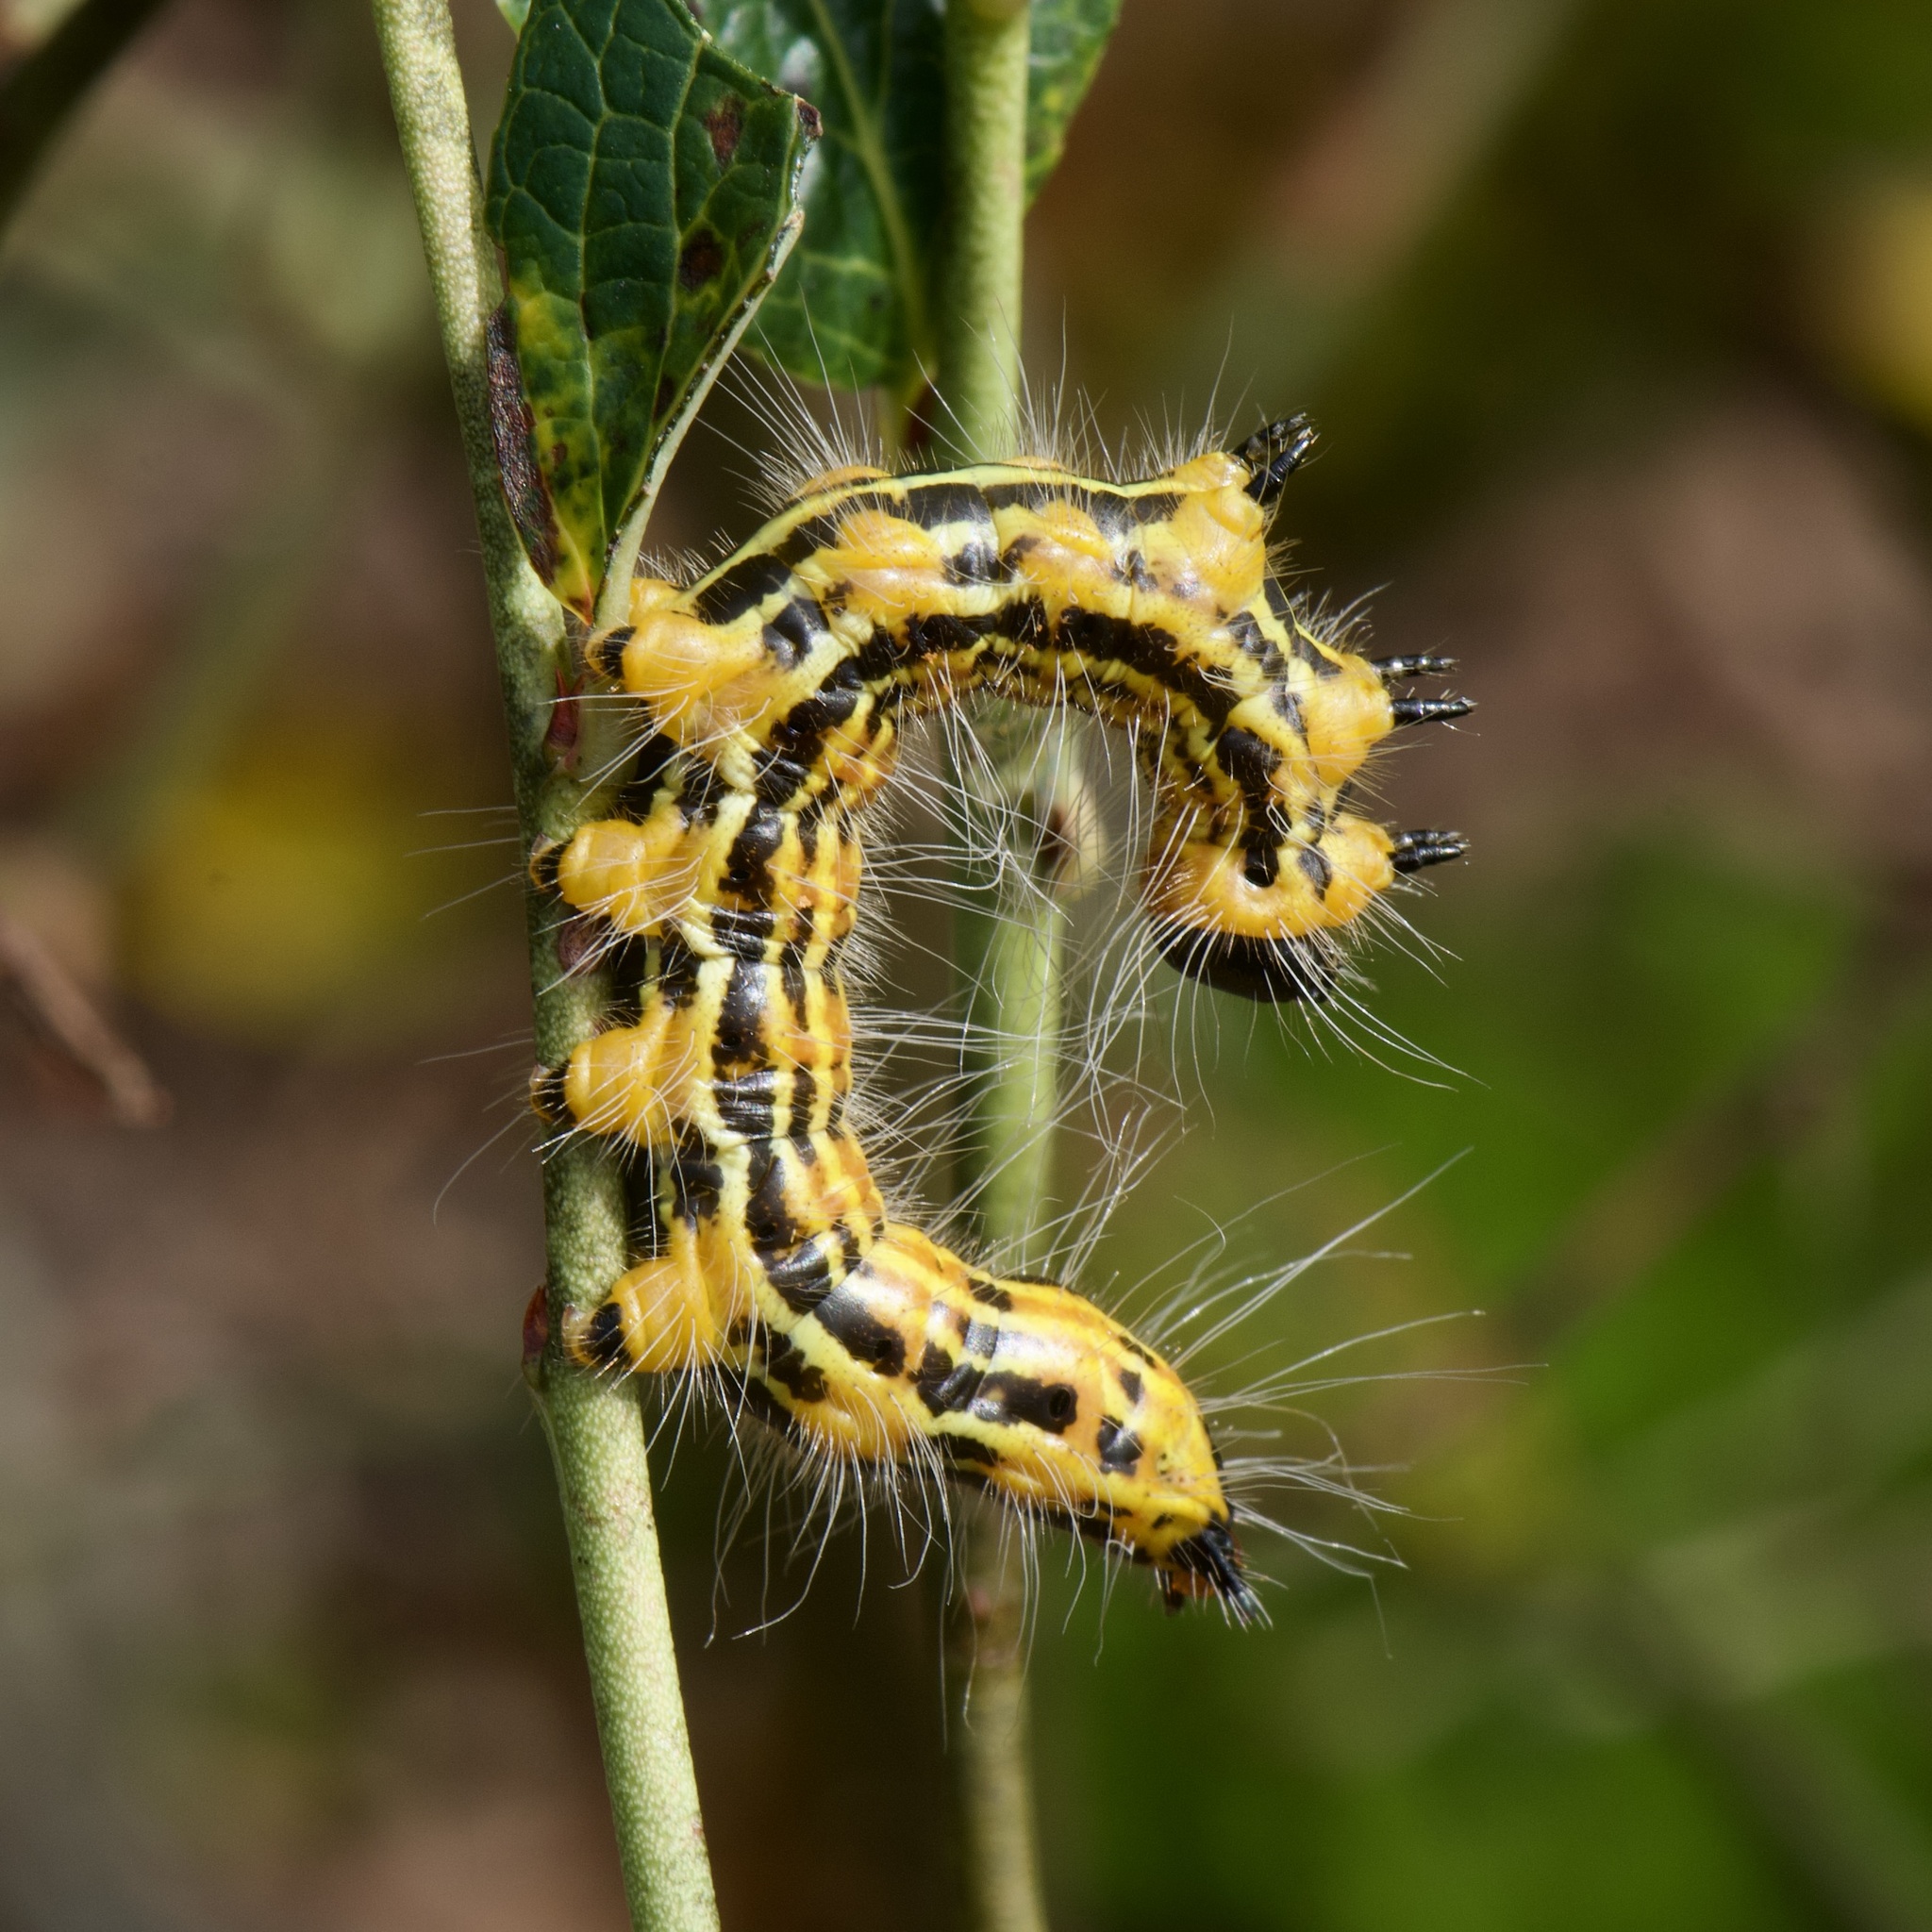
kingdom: Animalia
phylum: Arthropoda
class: Insecta
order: Lepidoptera
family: Notodontidae
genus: Datana
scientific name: Datana drexelii
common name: Drexel's datana
